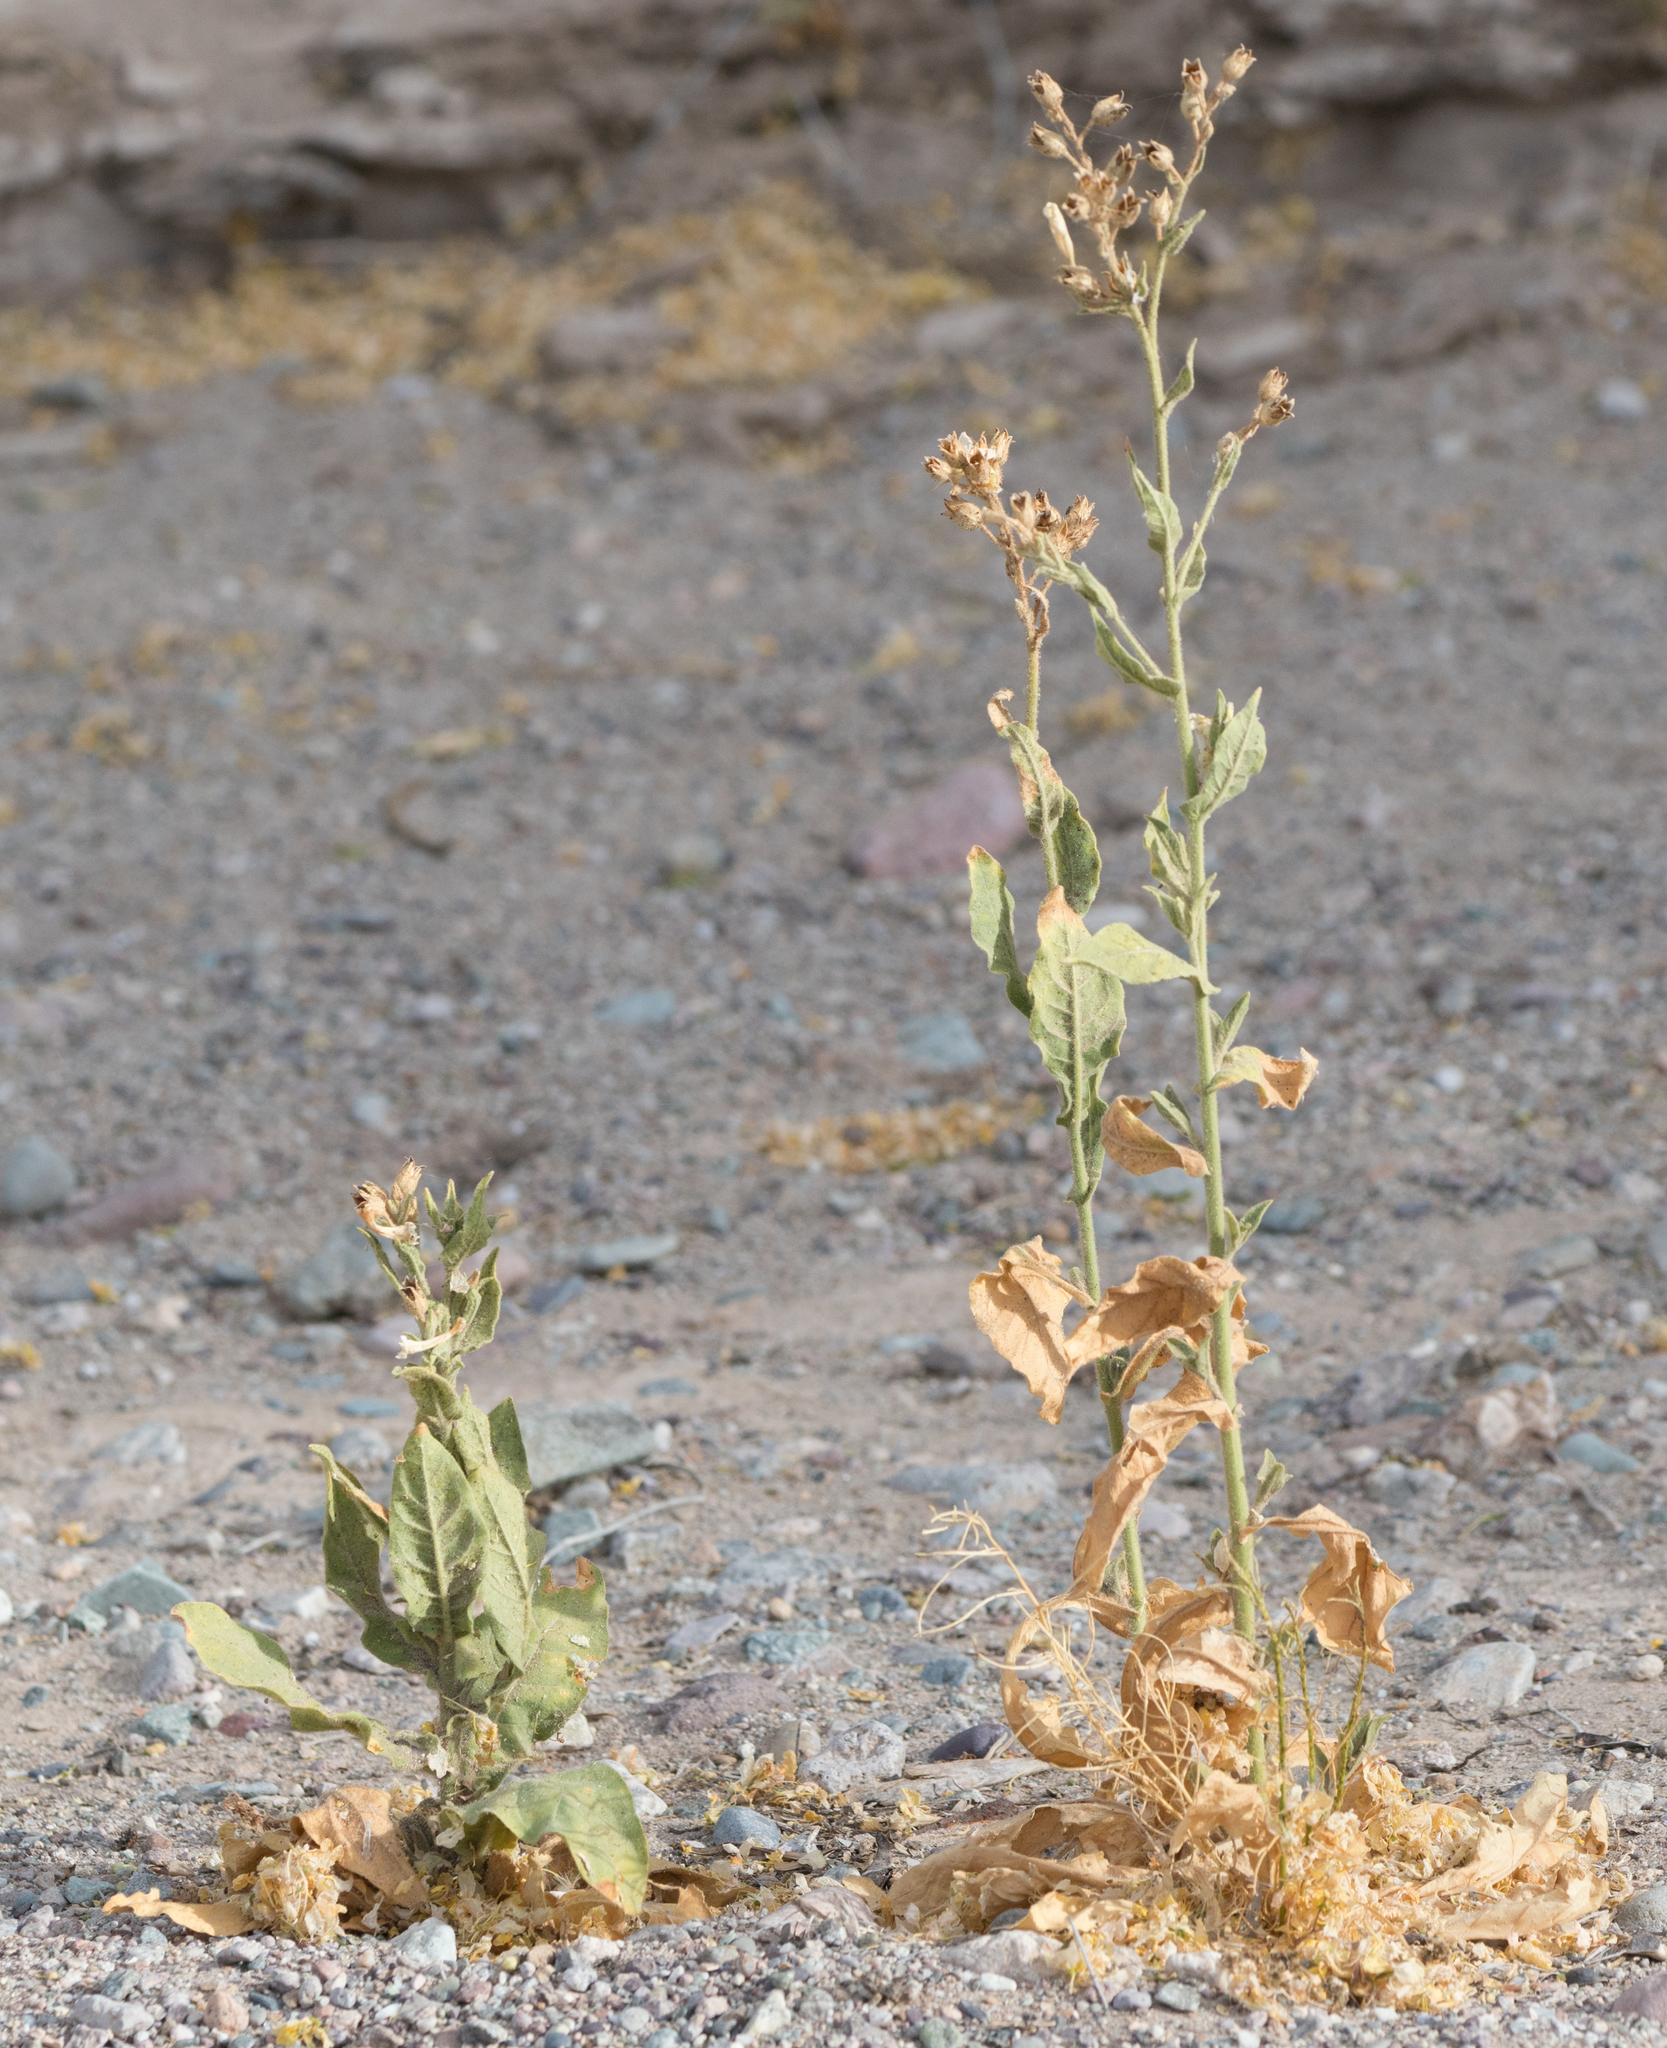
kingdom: Plantae
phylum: Tracheophyta
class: Magnoliopsida
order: Solanales
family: Solanaceae
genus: Nicotiana
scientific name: Nicotiana obtusifolia
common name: Desert tobacco
